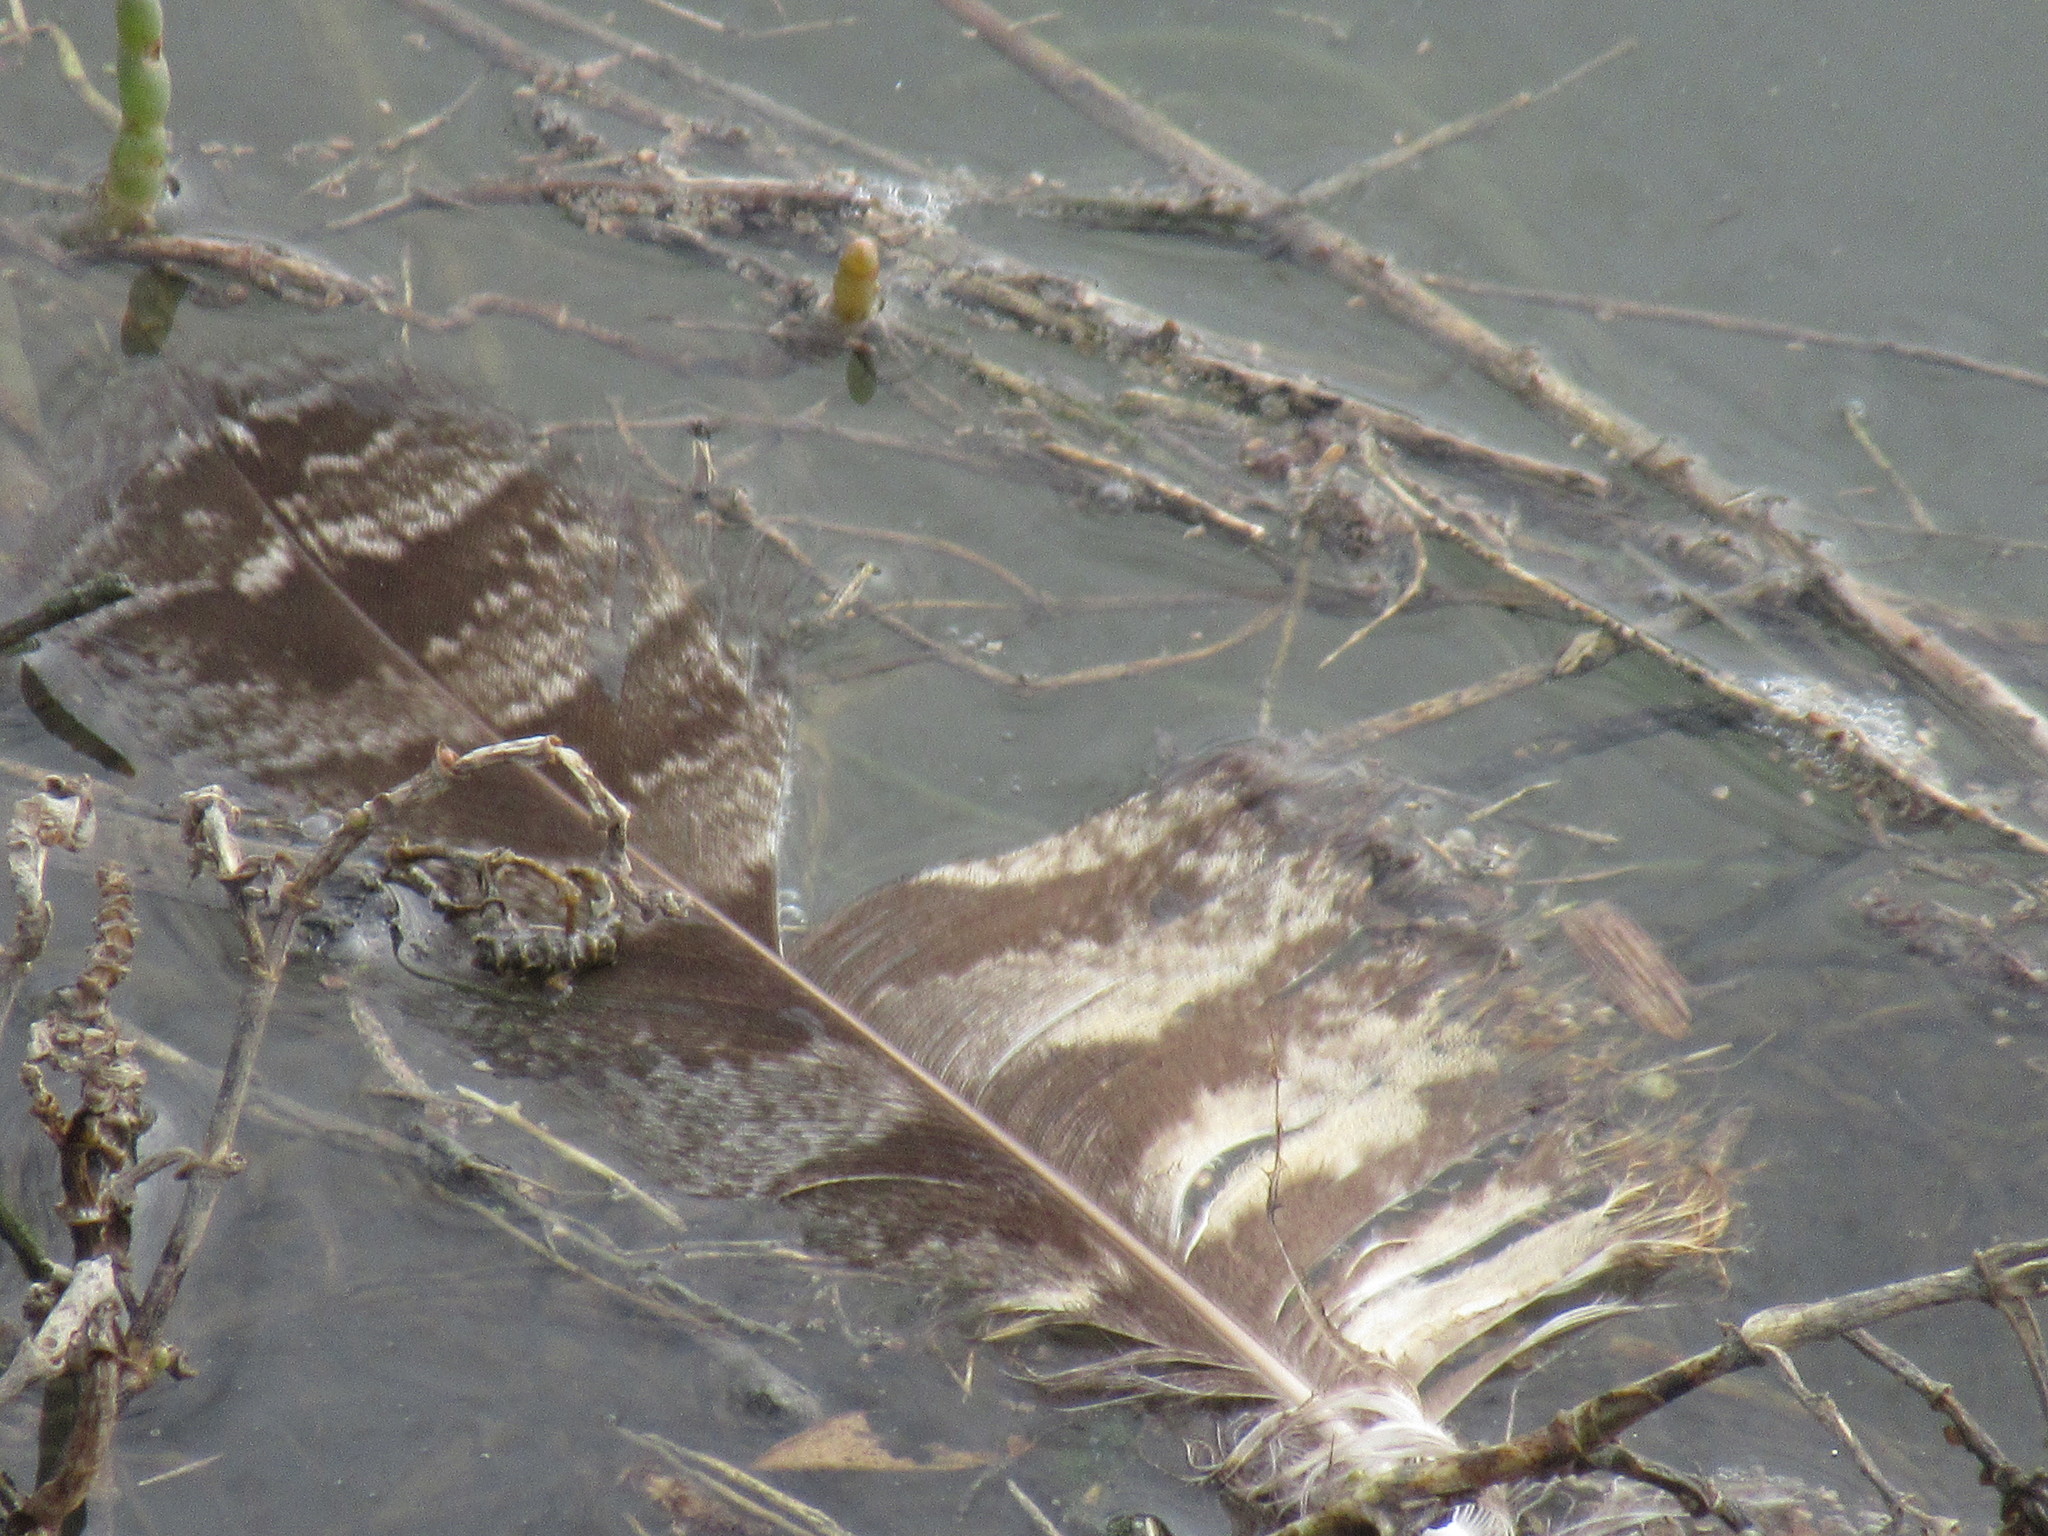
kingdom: Animalia
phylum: Chordata
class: Aves
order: Strigiformes
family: Strigidae
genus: Bubo
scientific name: Bubo virginianus
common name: Great horned owl
